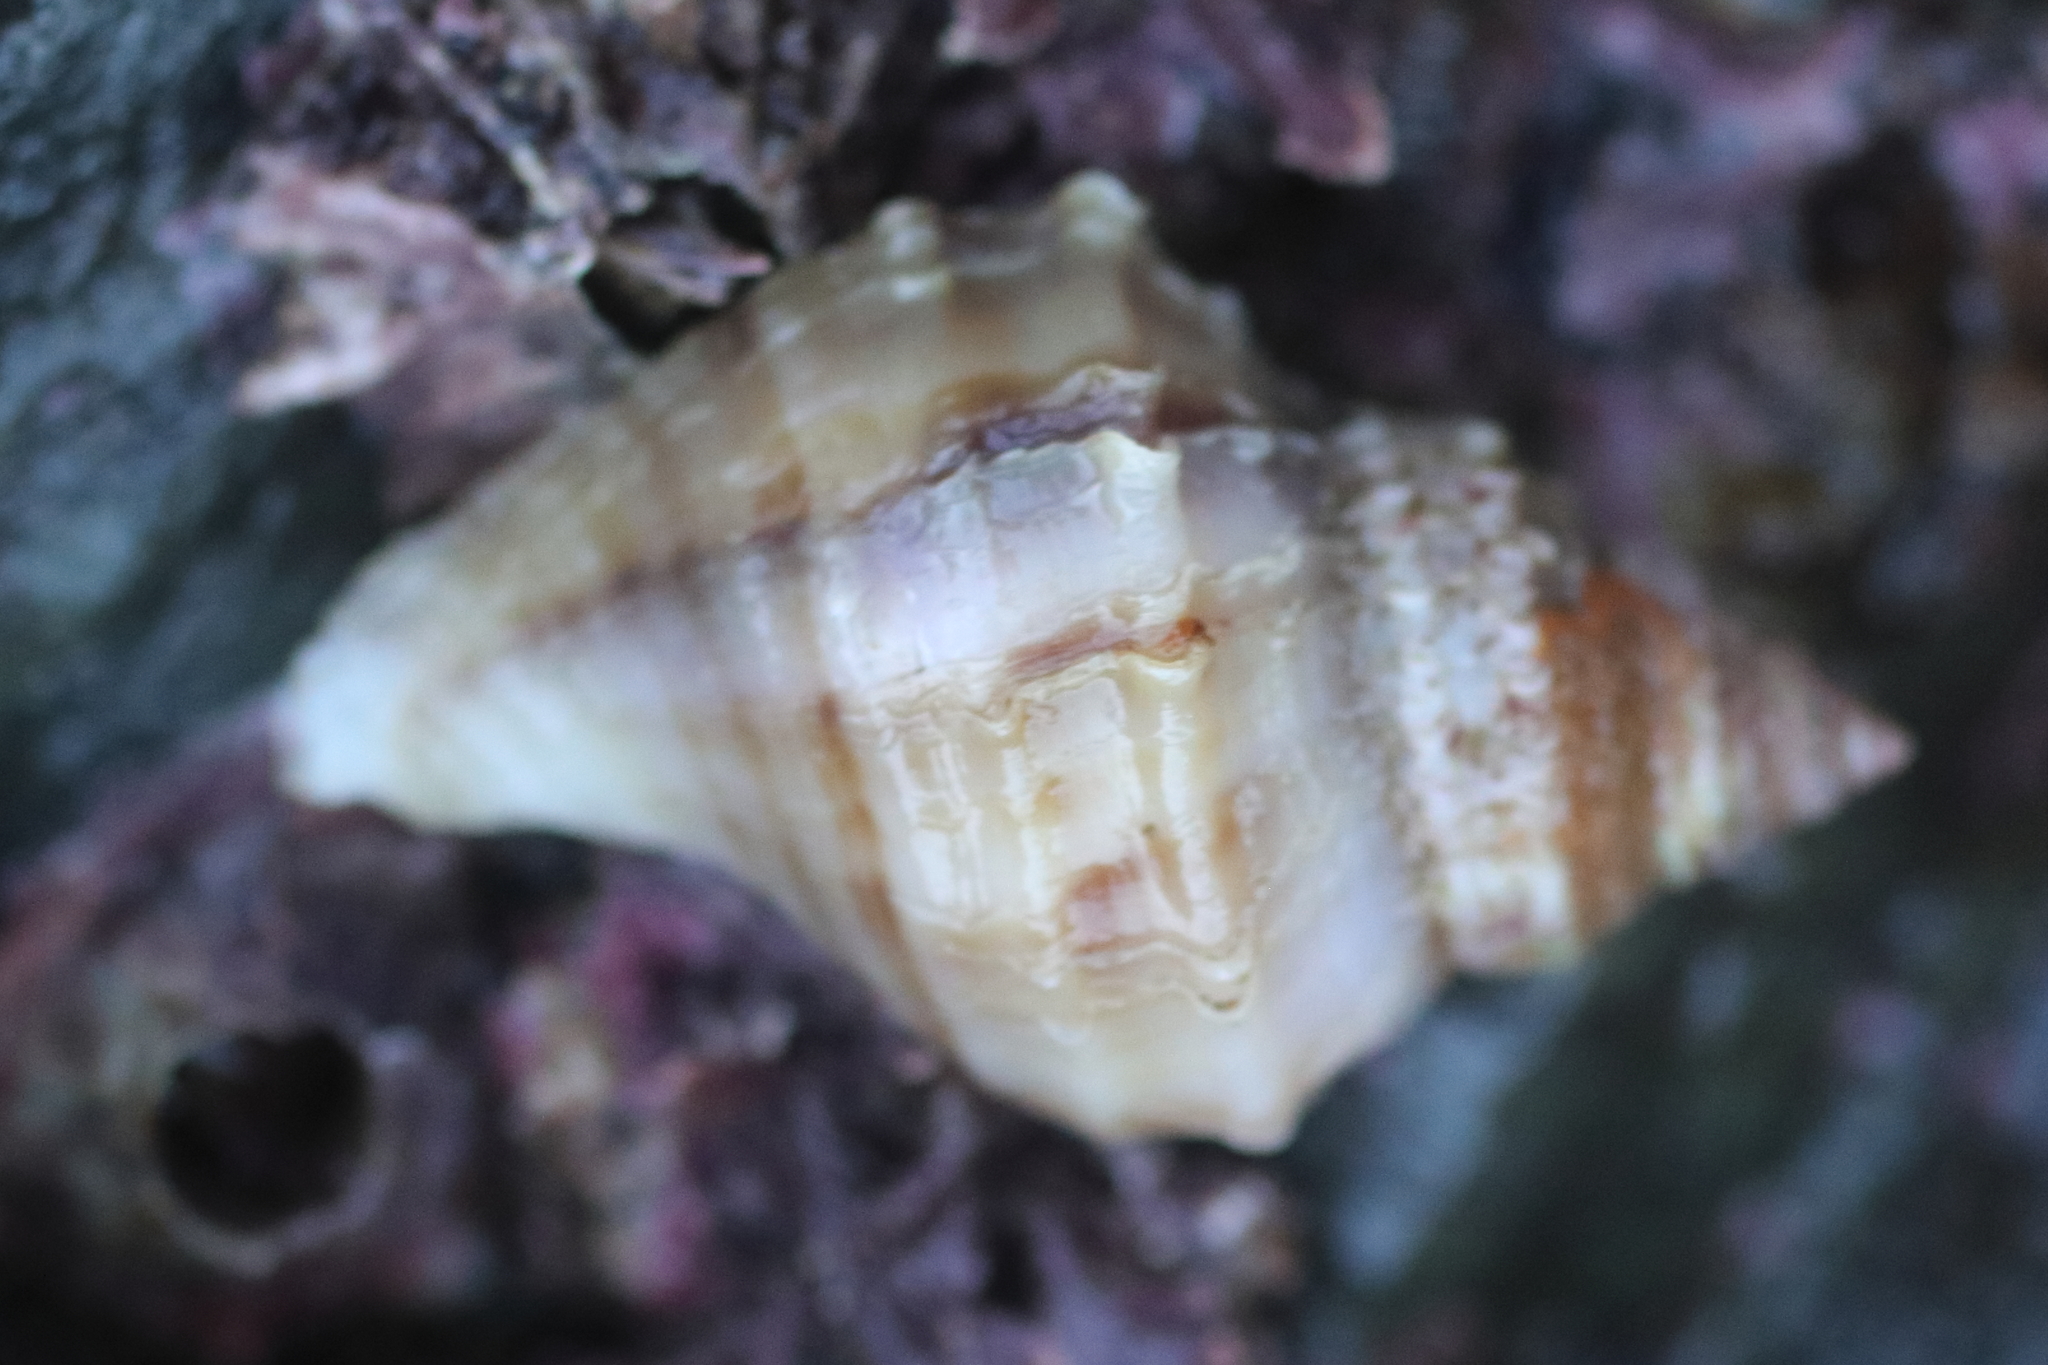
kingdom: Animalia
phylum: Mollusca
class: Gastropoda
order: Neogastropoda
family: Muricidae
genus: Nucella
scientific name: Nucella lamellosa
